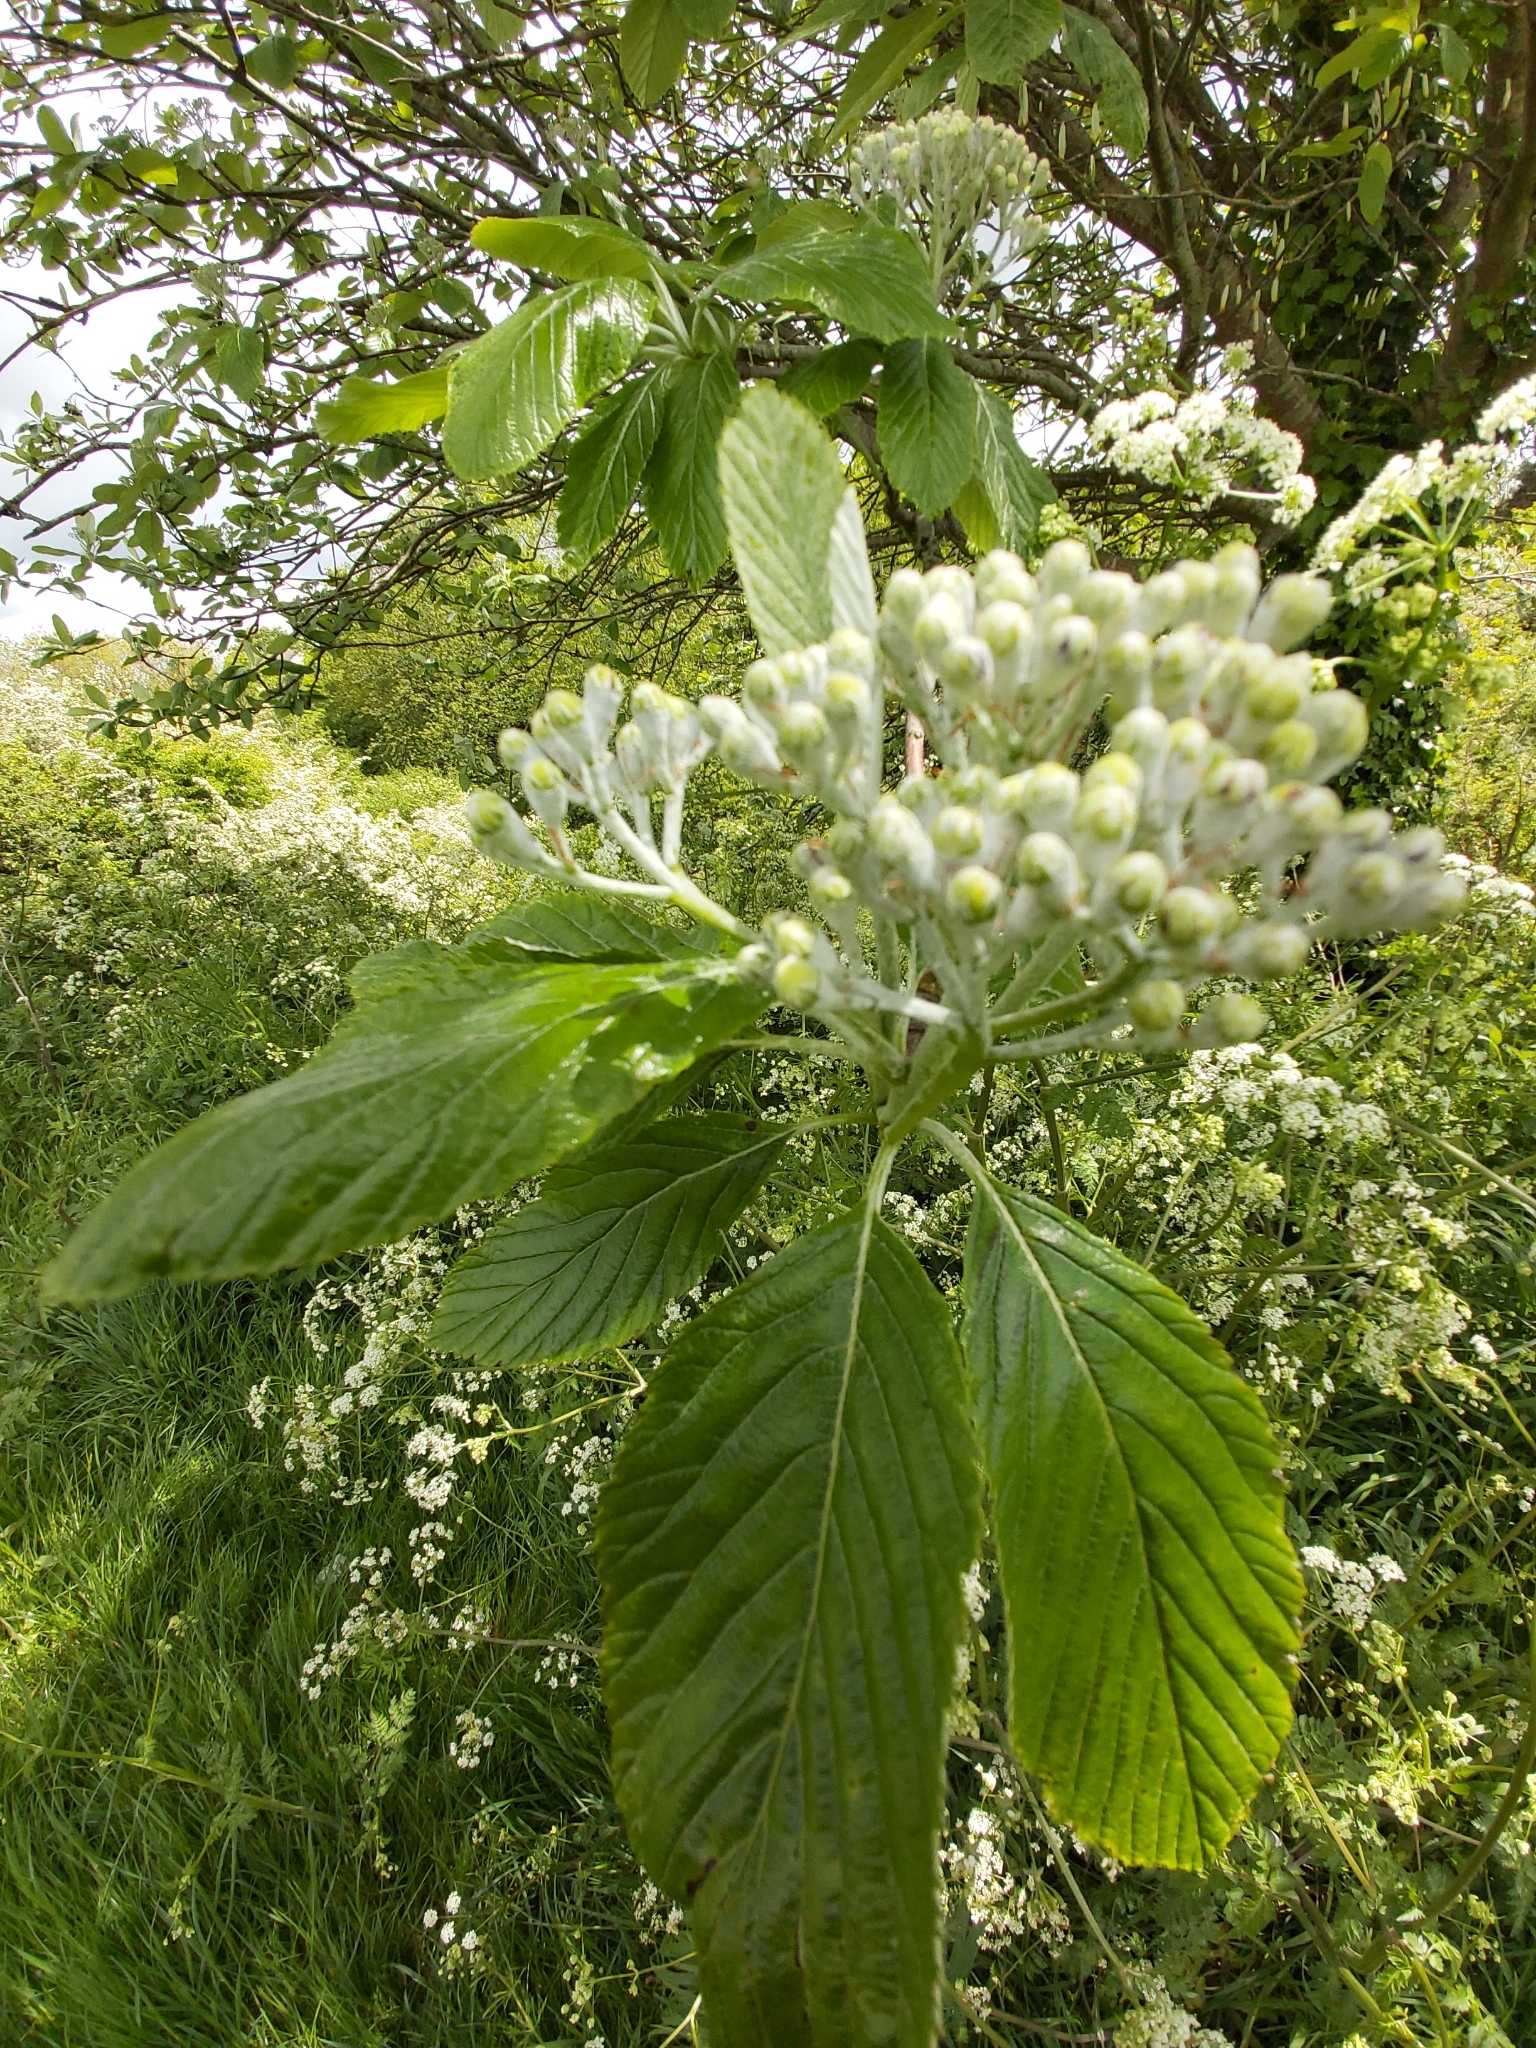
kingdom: Plantae
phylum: Tracheophyta
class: Magnoliopsida
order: Rosales
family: Rosaceae
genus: Aria
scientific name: Aria edulis
